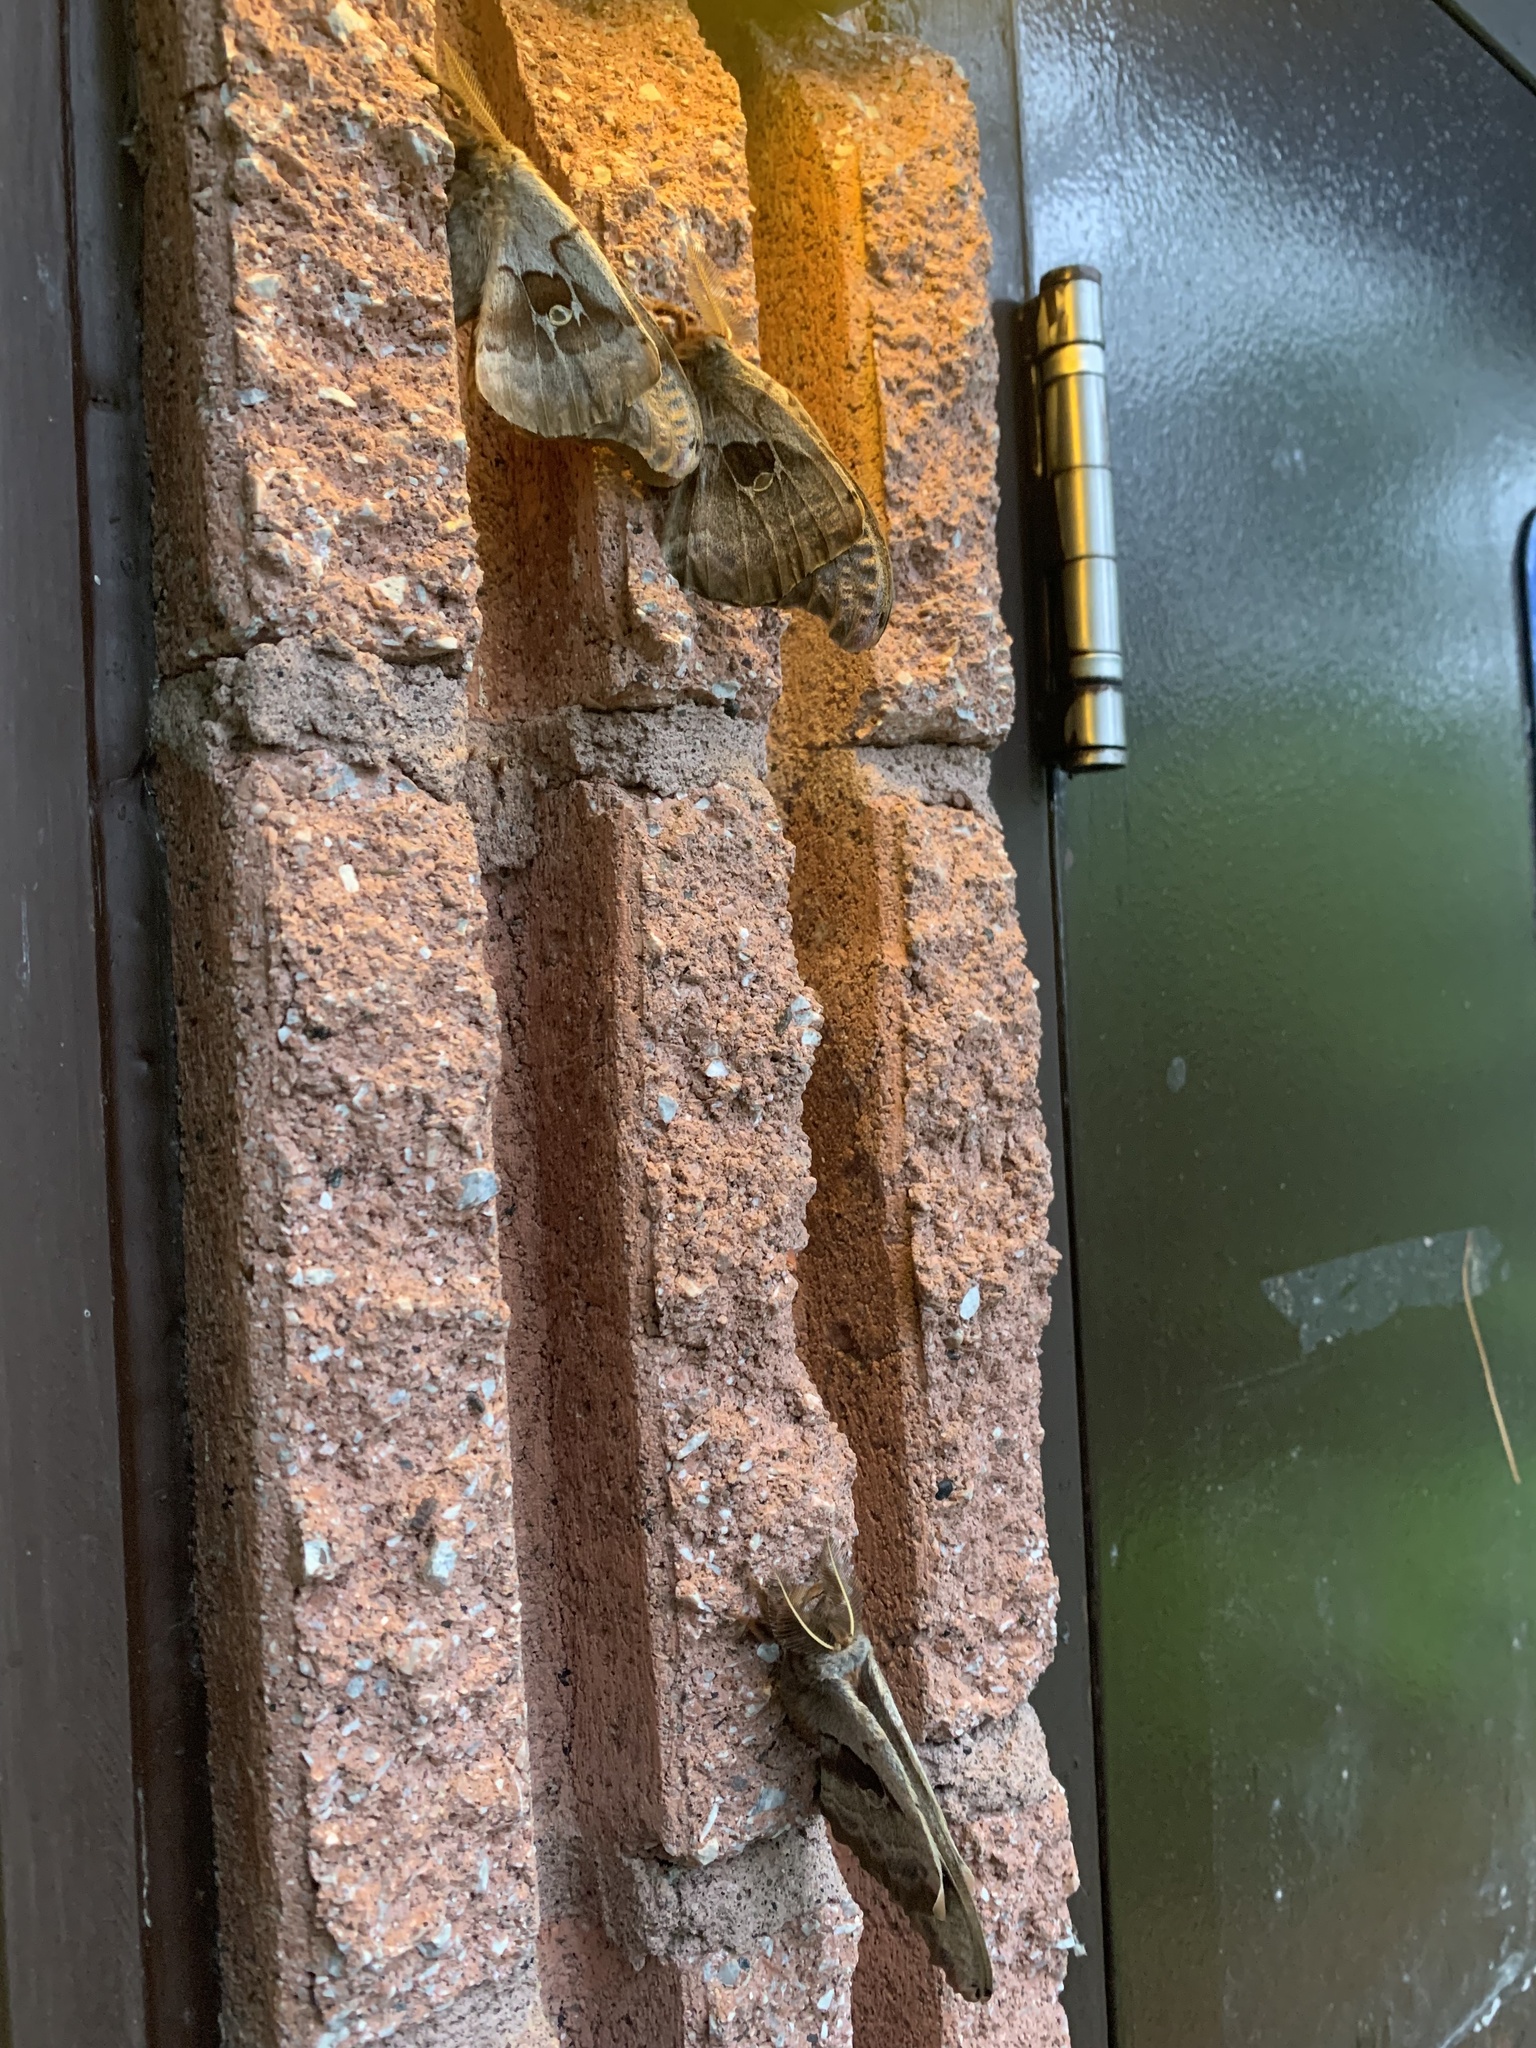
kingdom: Animalia
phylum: Arthropoda
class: Insecta
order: Lepidoptera
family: Saturniidae
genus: Antheraea
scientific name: Antheraea polyphemus
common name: Polyphemus moth
